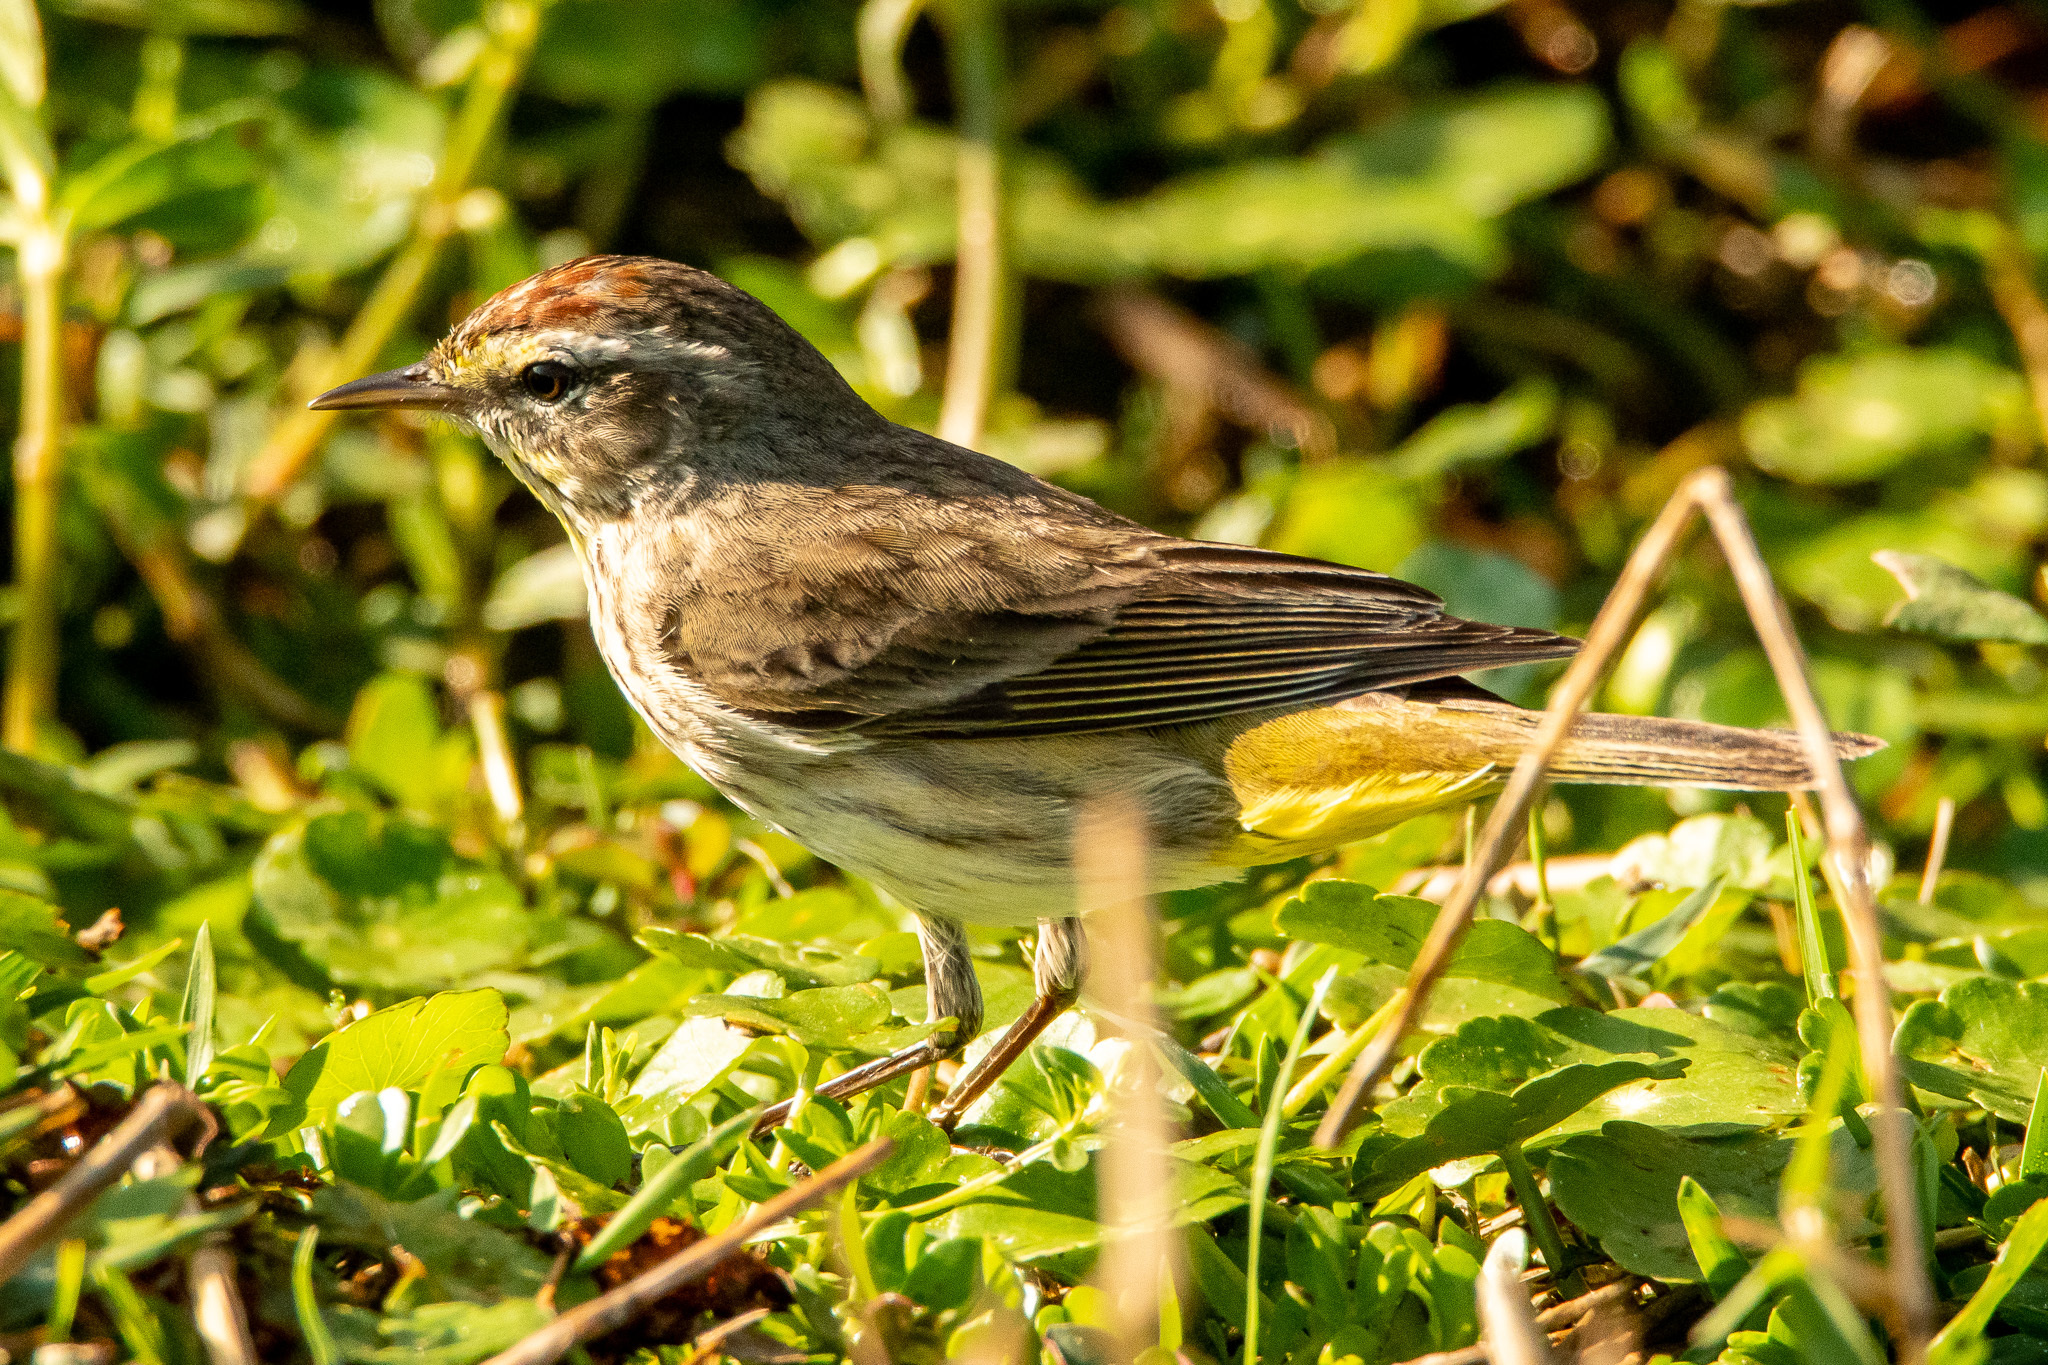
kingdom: Animalia
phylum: Chordata
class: Aves
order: Passeriformes
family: Parulidae
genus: Setophaga
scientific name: Setophaga palmarum
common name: Palm warbler
